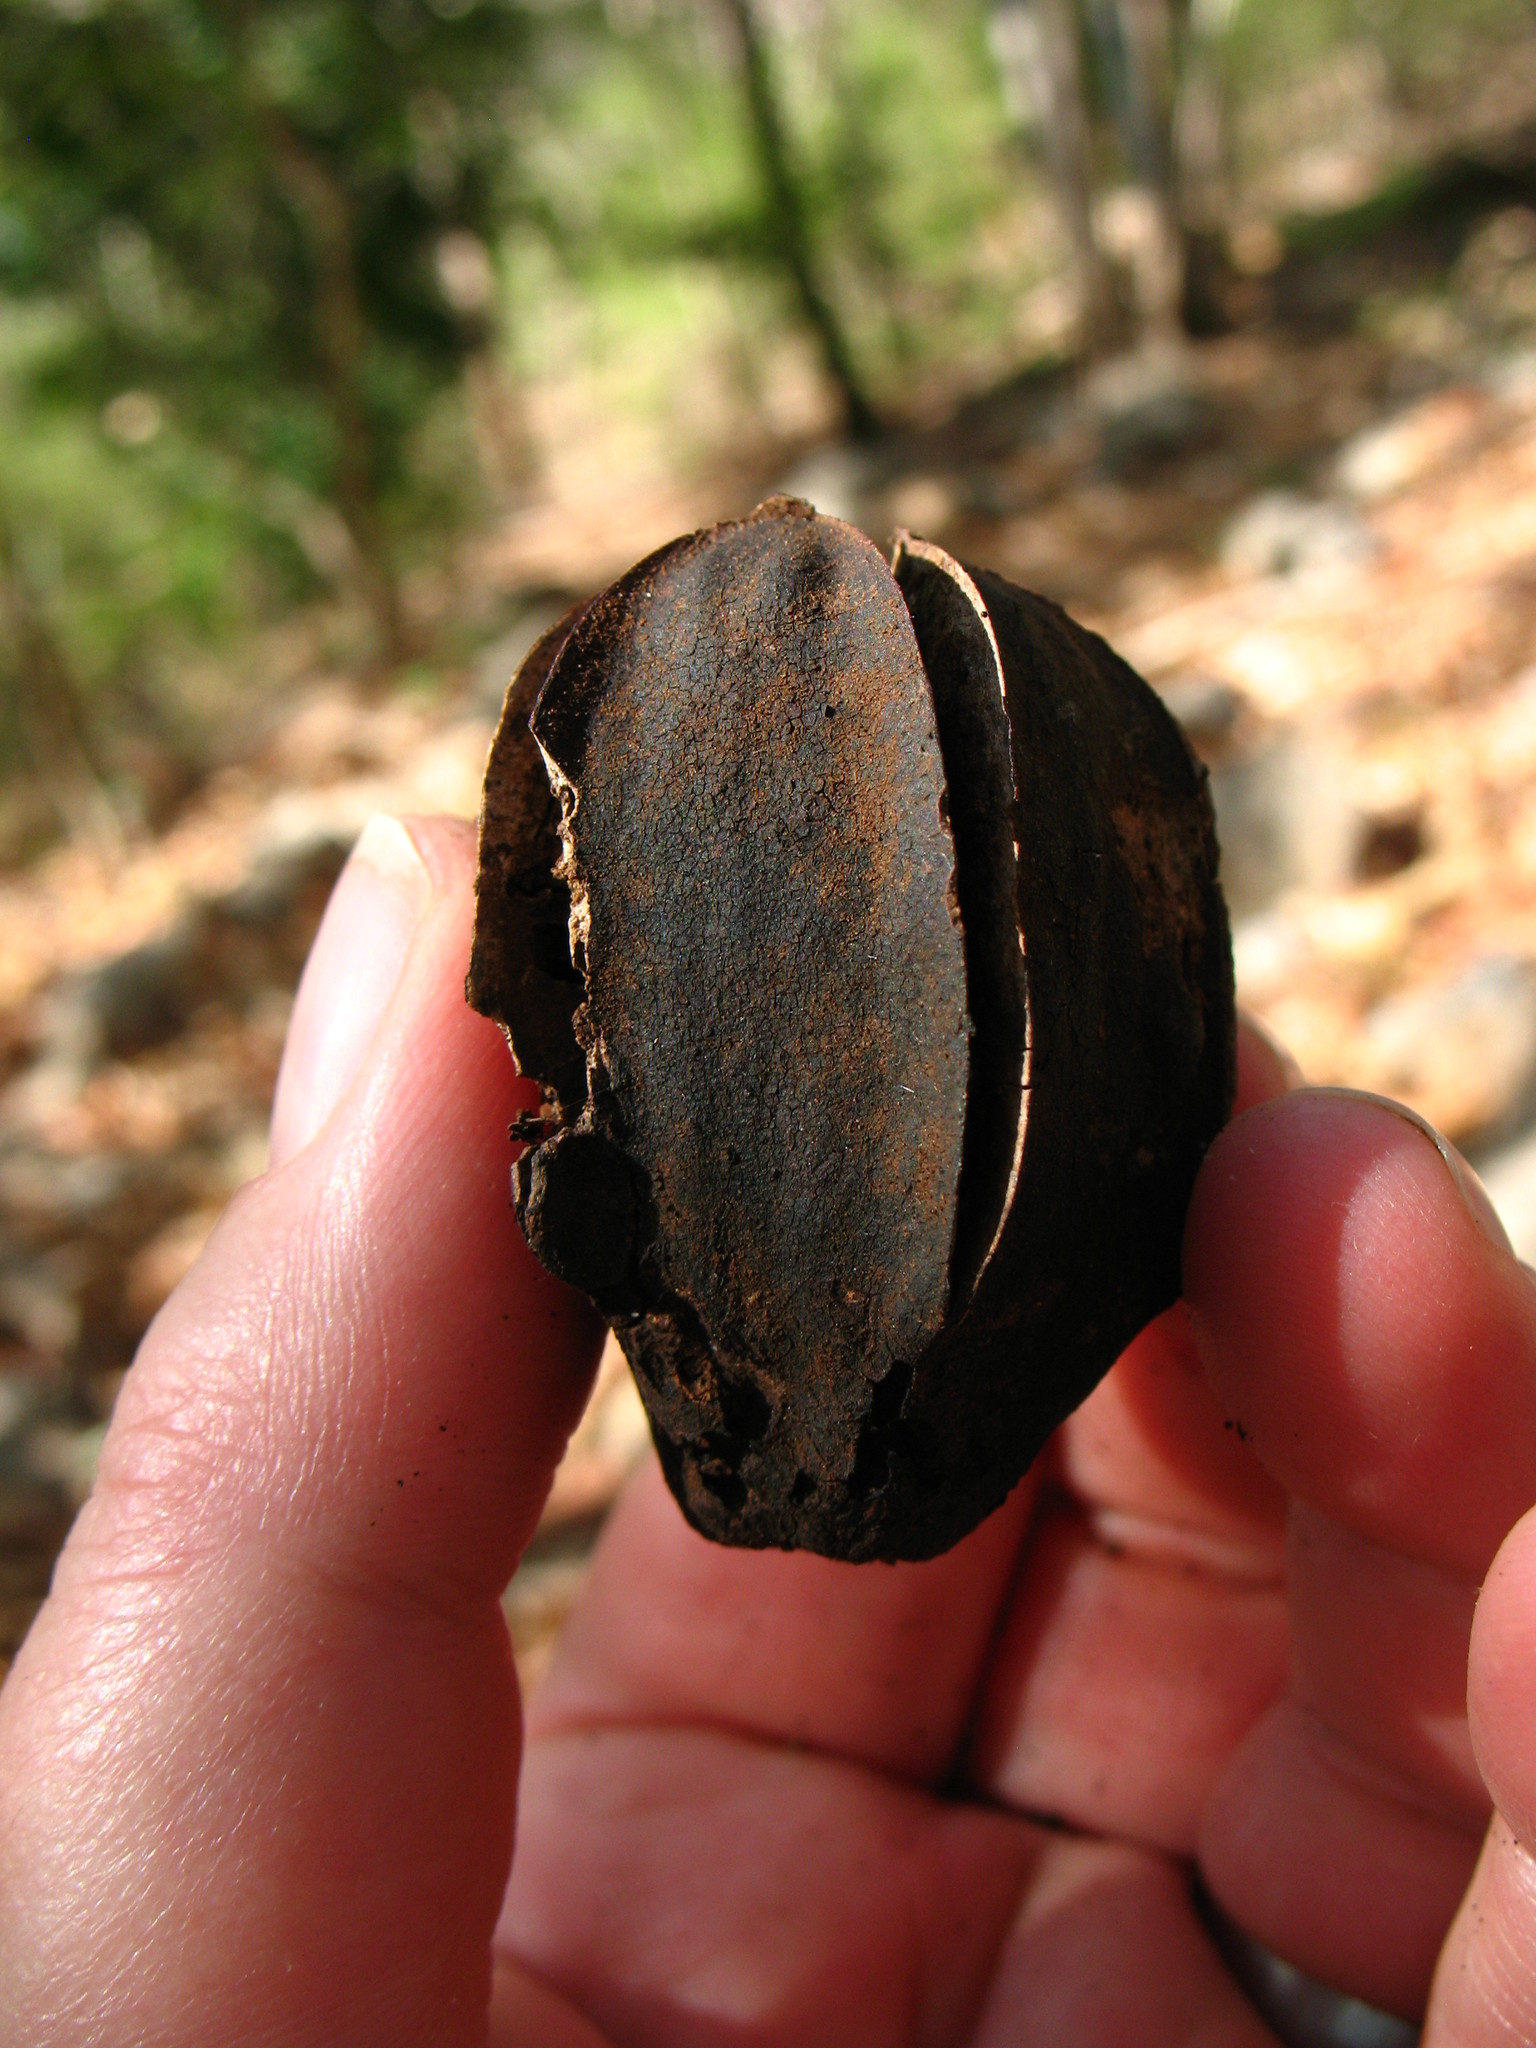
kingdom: Plantae
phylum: Tracheophyta
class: Magnoliopsida
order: Malvales
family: Malvaceae
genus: Luehea
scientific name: Luehea candida
